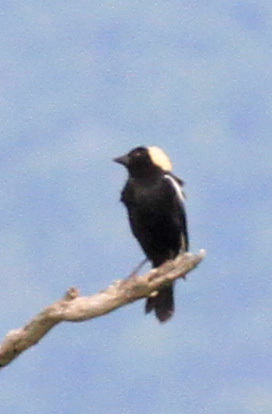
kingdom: Animalia
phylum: Chordata
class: Aves
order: Passeriformes
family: Icteridae
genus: Dolichonyx
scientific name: Dolichonyx oryzivorus
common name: Bobolink
